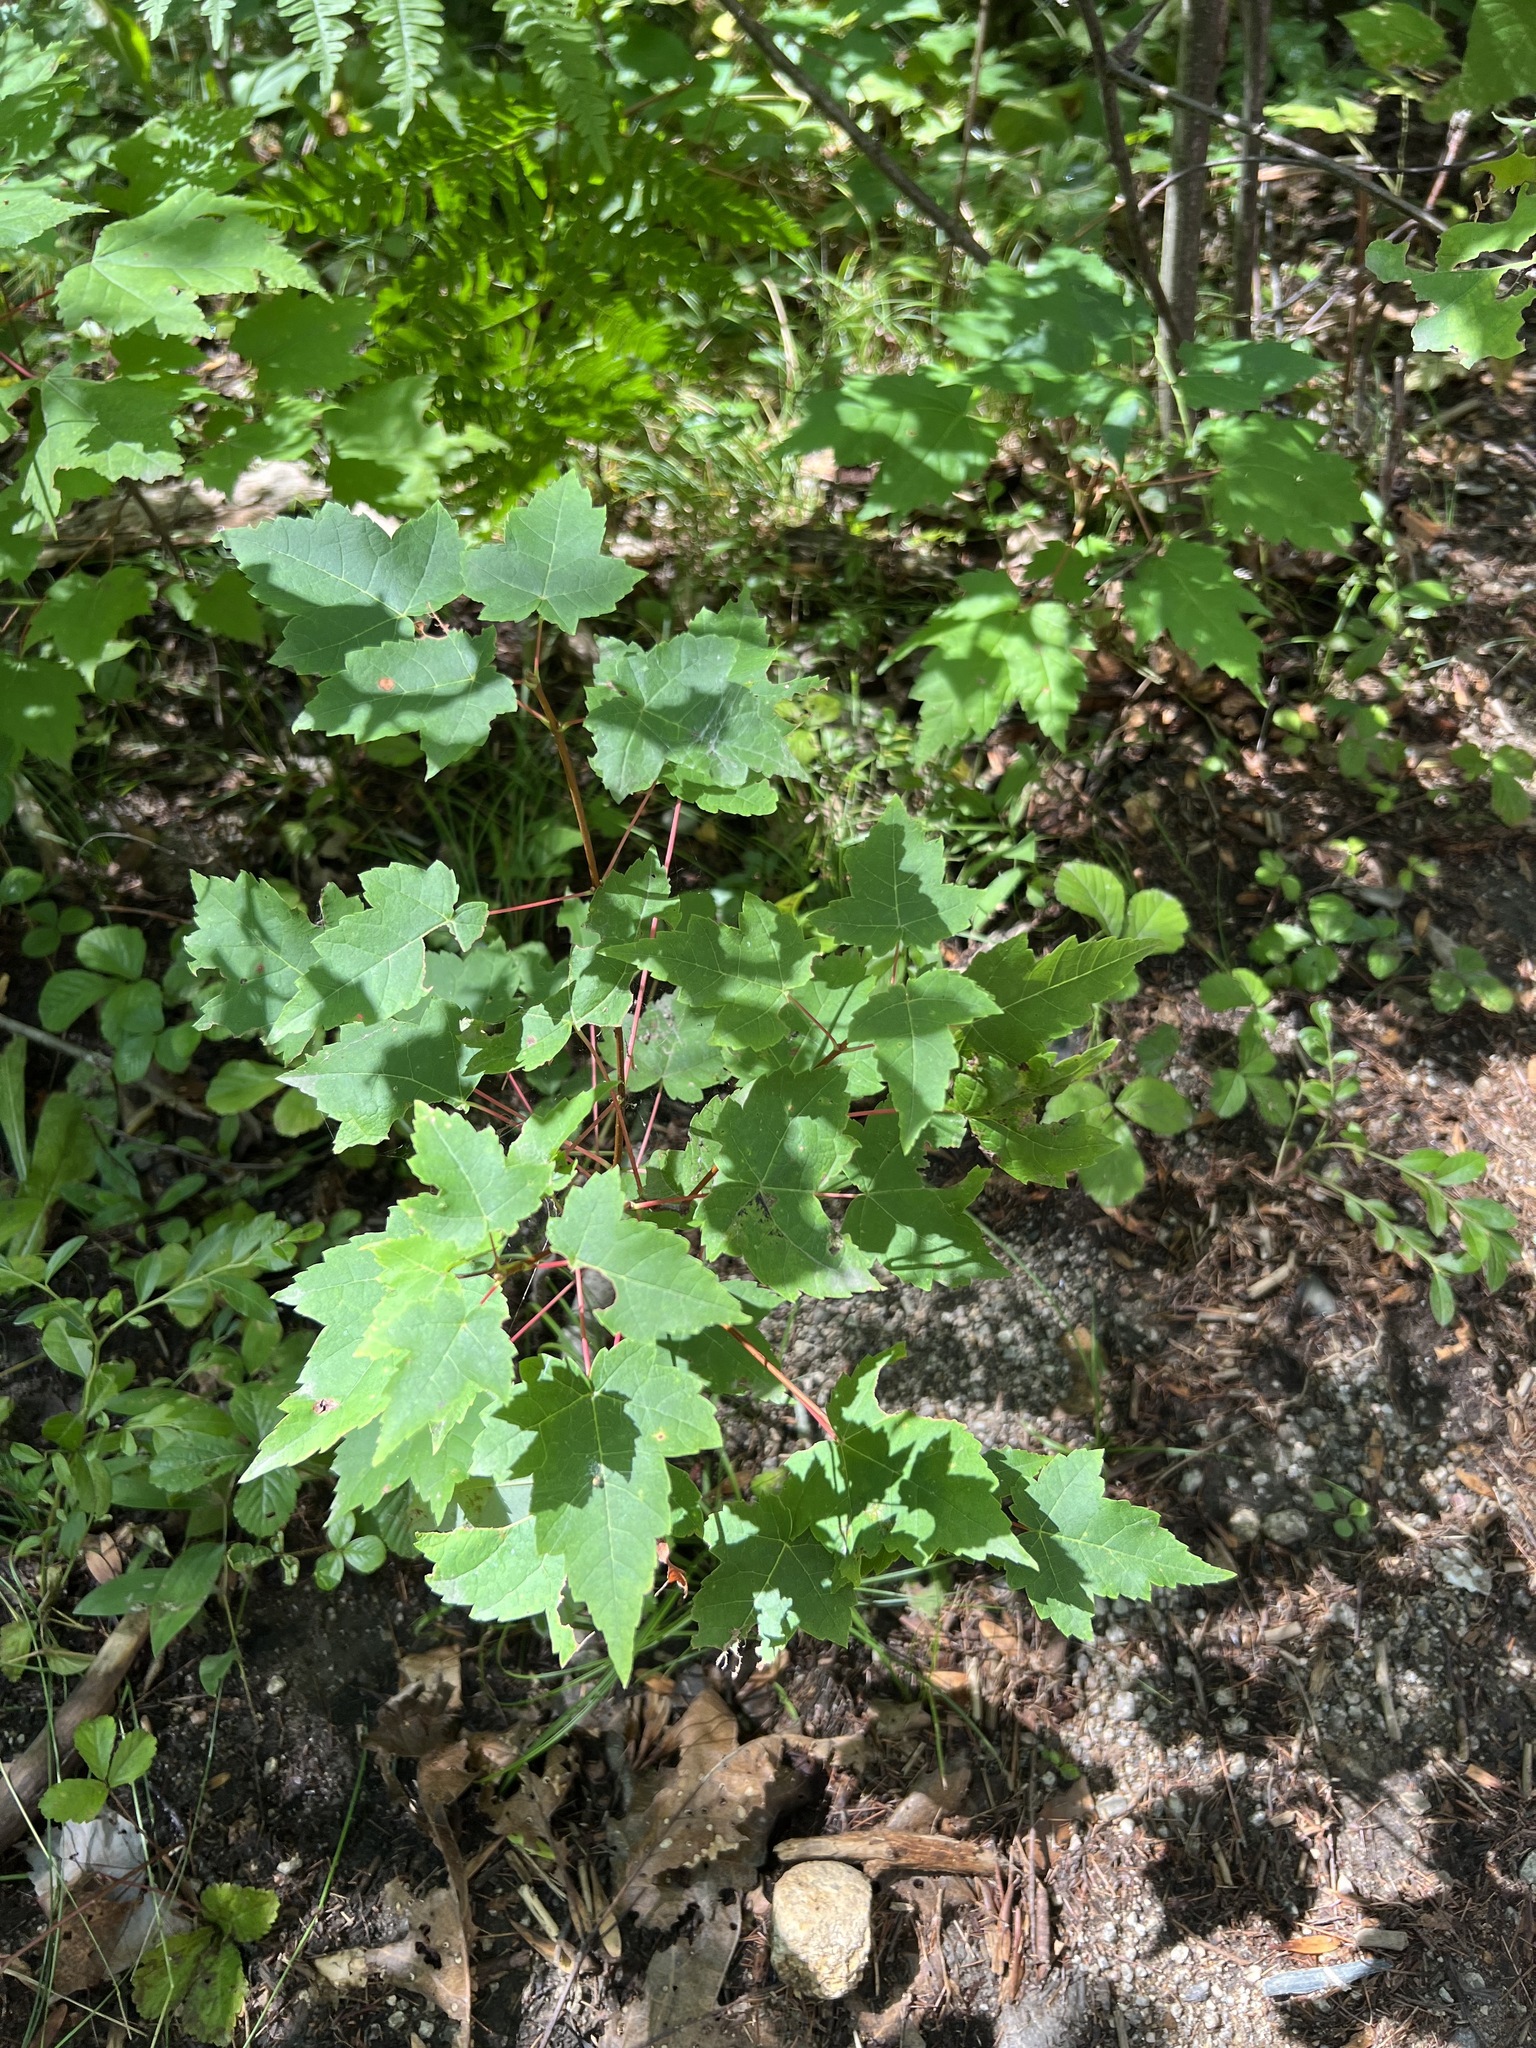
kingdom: Plantae
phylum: Tracheophyta
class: Magnoliopsida
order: Sapindales
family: Sapindaceae
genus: Acer
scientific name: Acer rubrum
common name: Red maple
